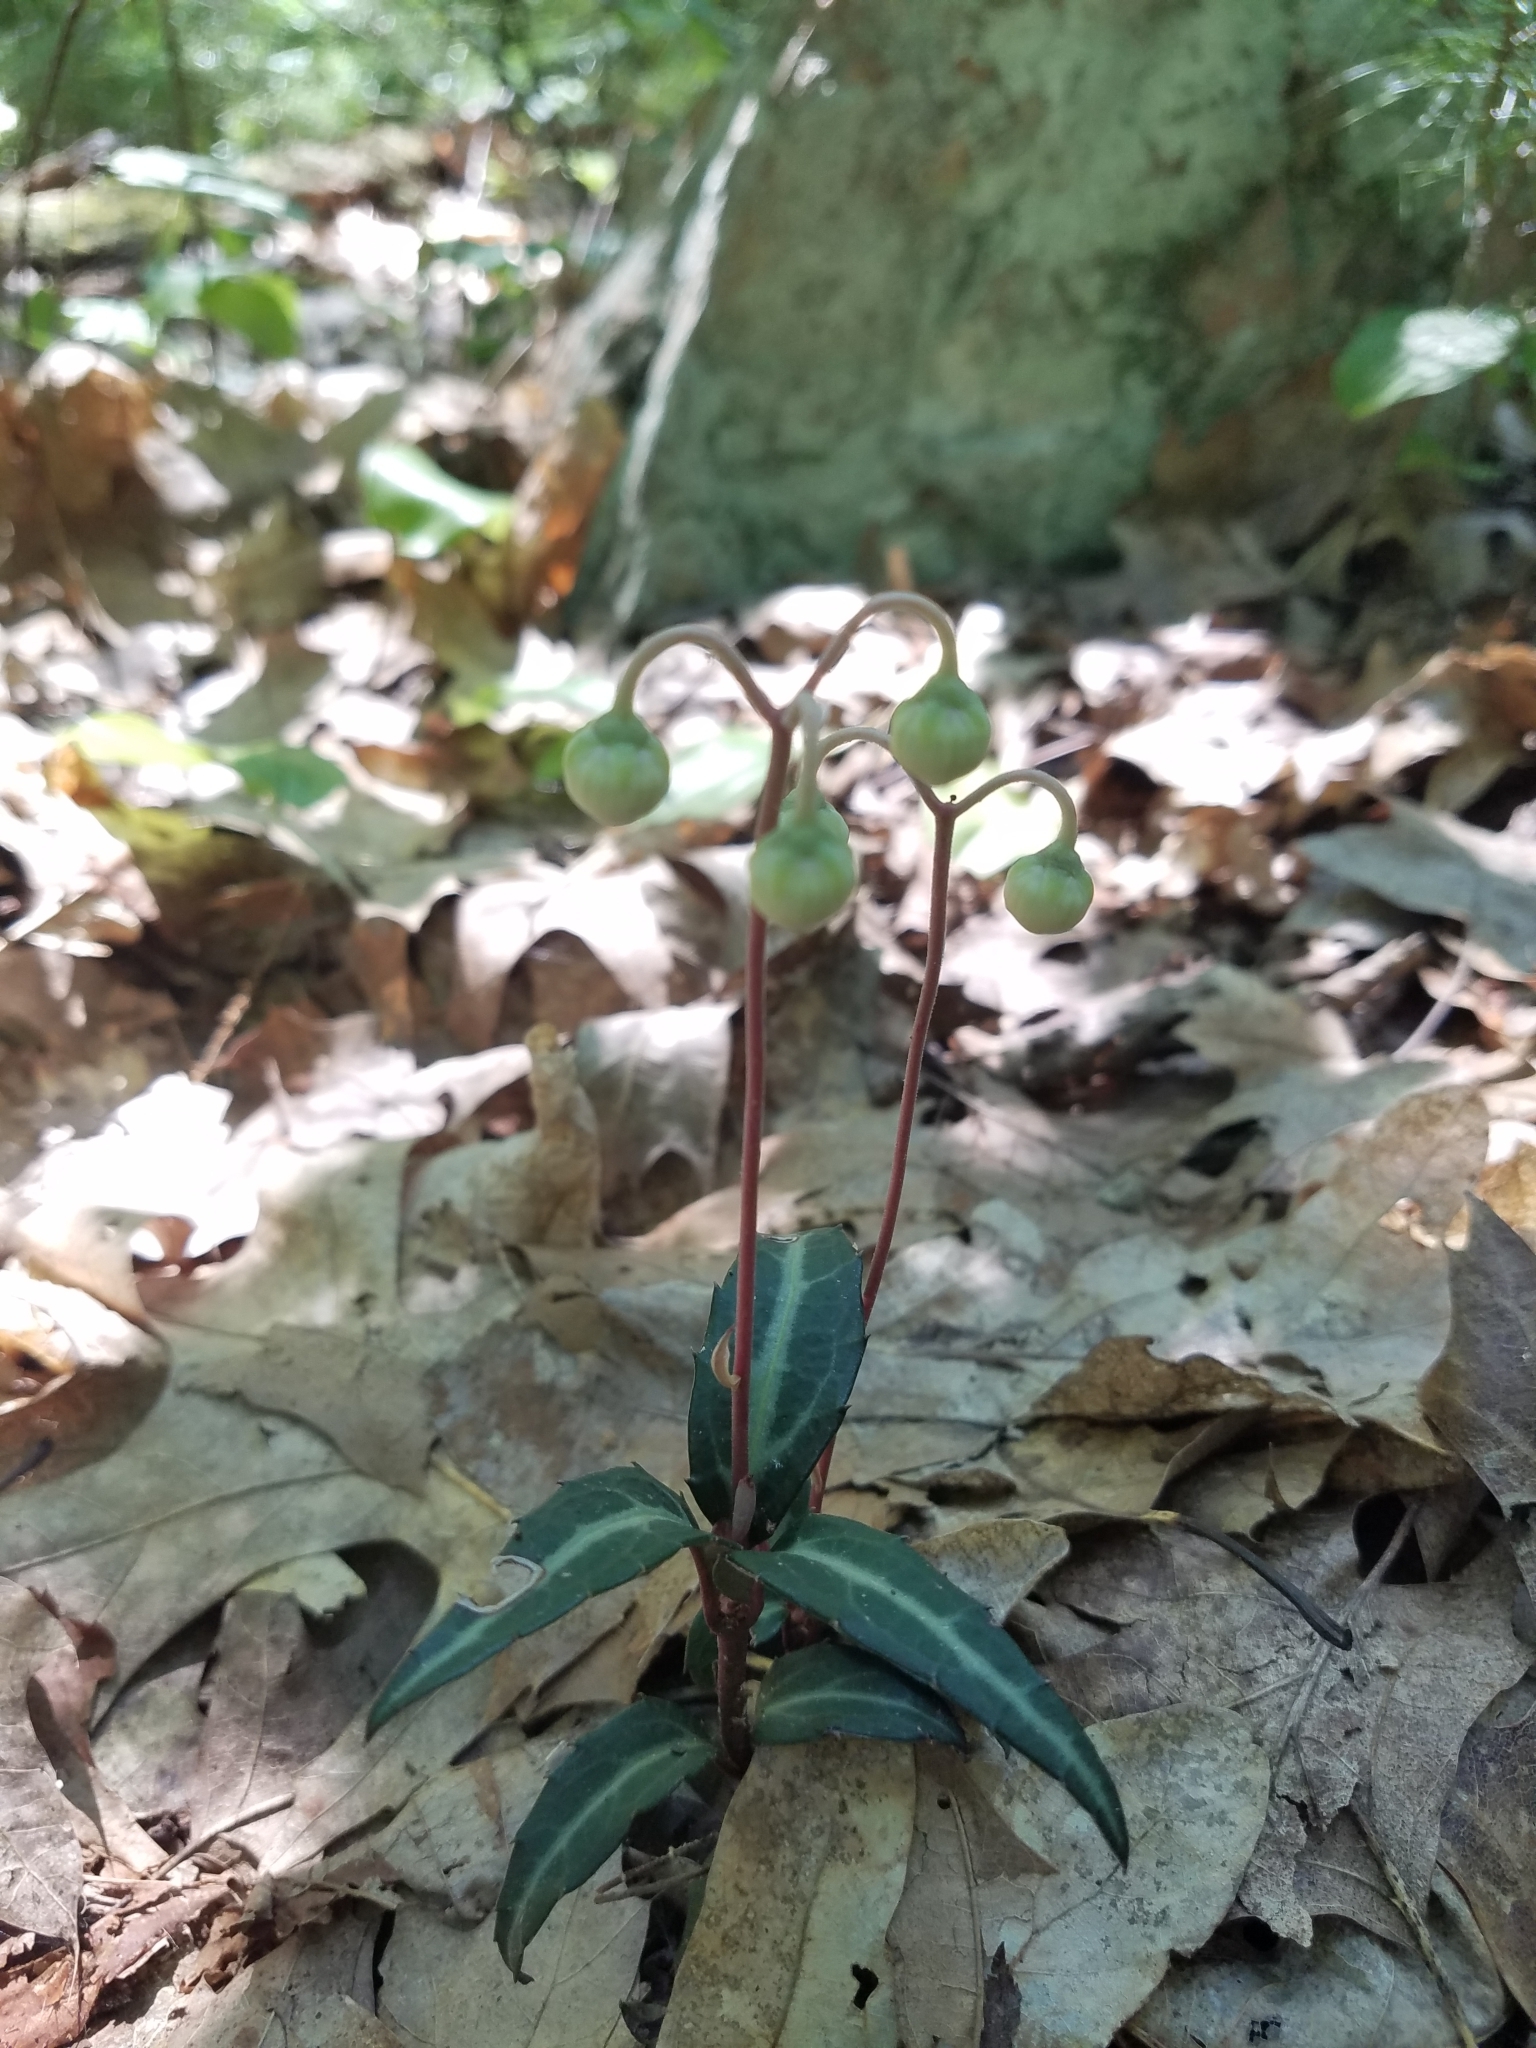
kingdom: Plantae
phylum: Tracheophyta
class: Magnoliopsida
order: Ericales
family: Ericaceae
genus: Chimaphila
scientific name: Chimaphila maculata
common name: Spotted pipsissewa
